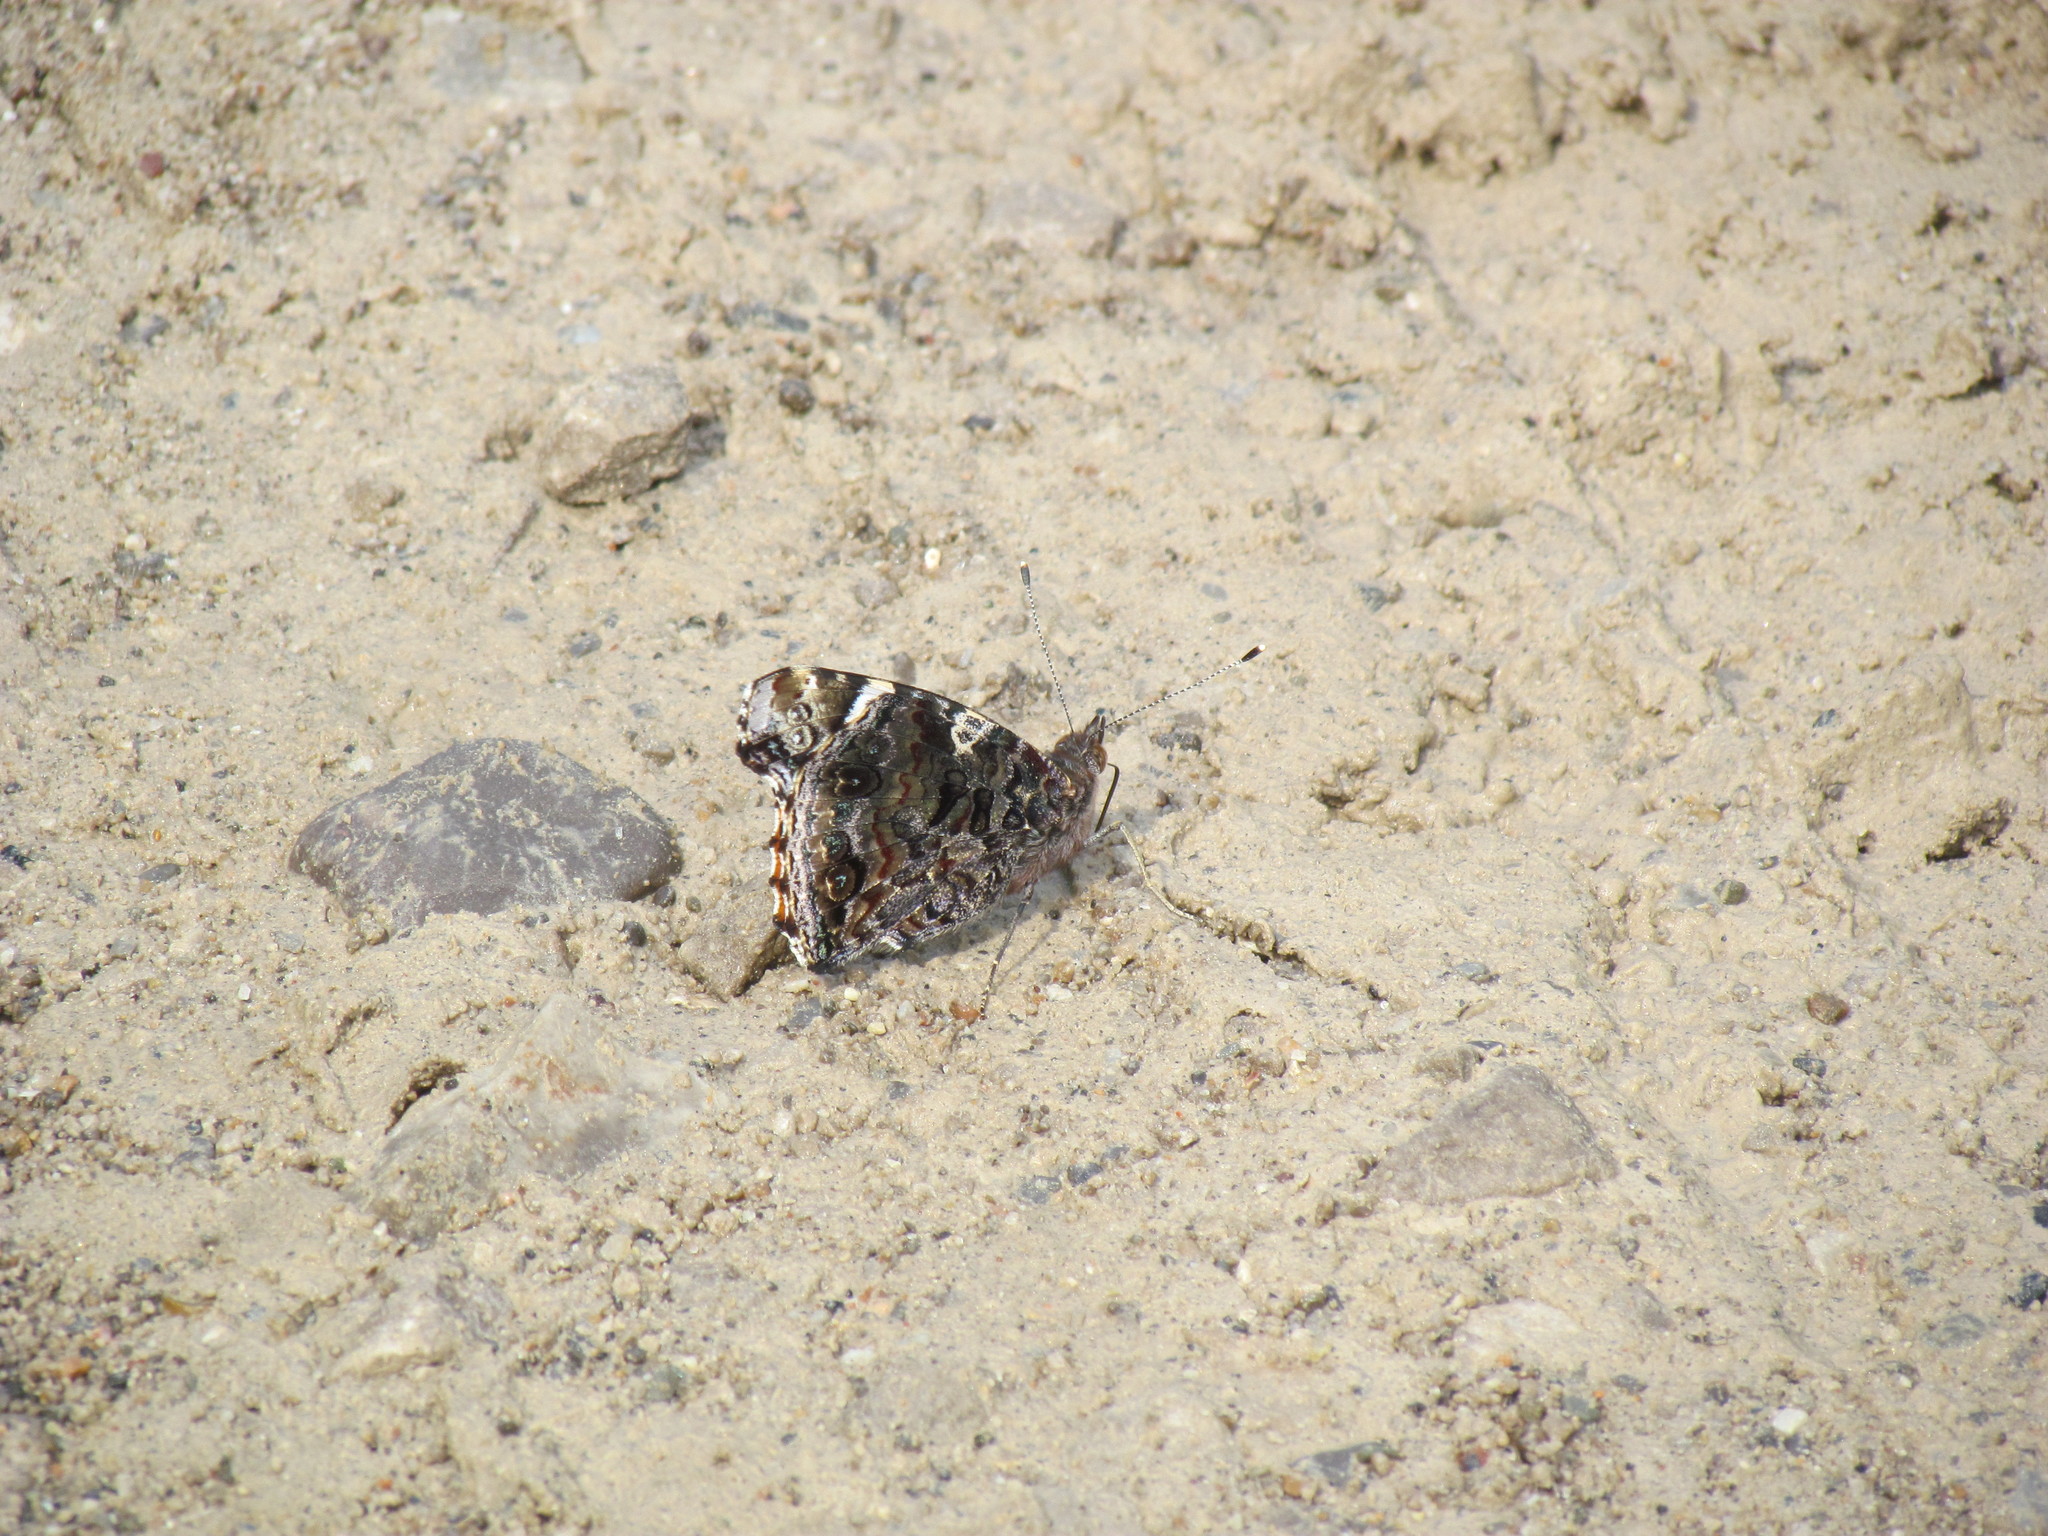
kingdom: Animalia
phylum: Arthropoda
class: Insecta
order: Lepidoptera
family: Nymphalidae
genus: Vanessa
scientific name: Vanessa atalanta
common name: Red admiral
